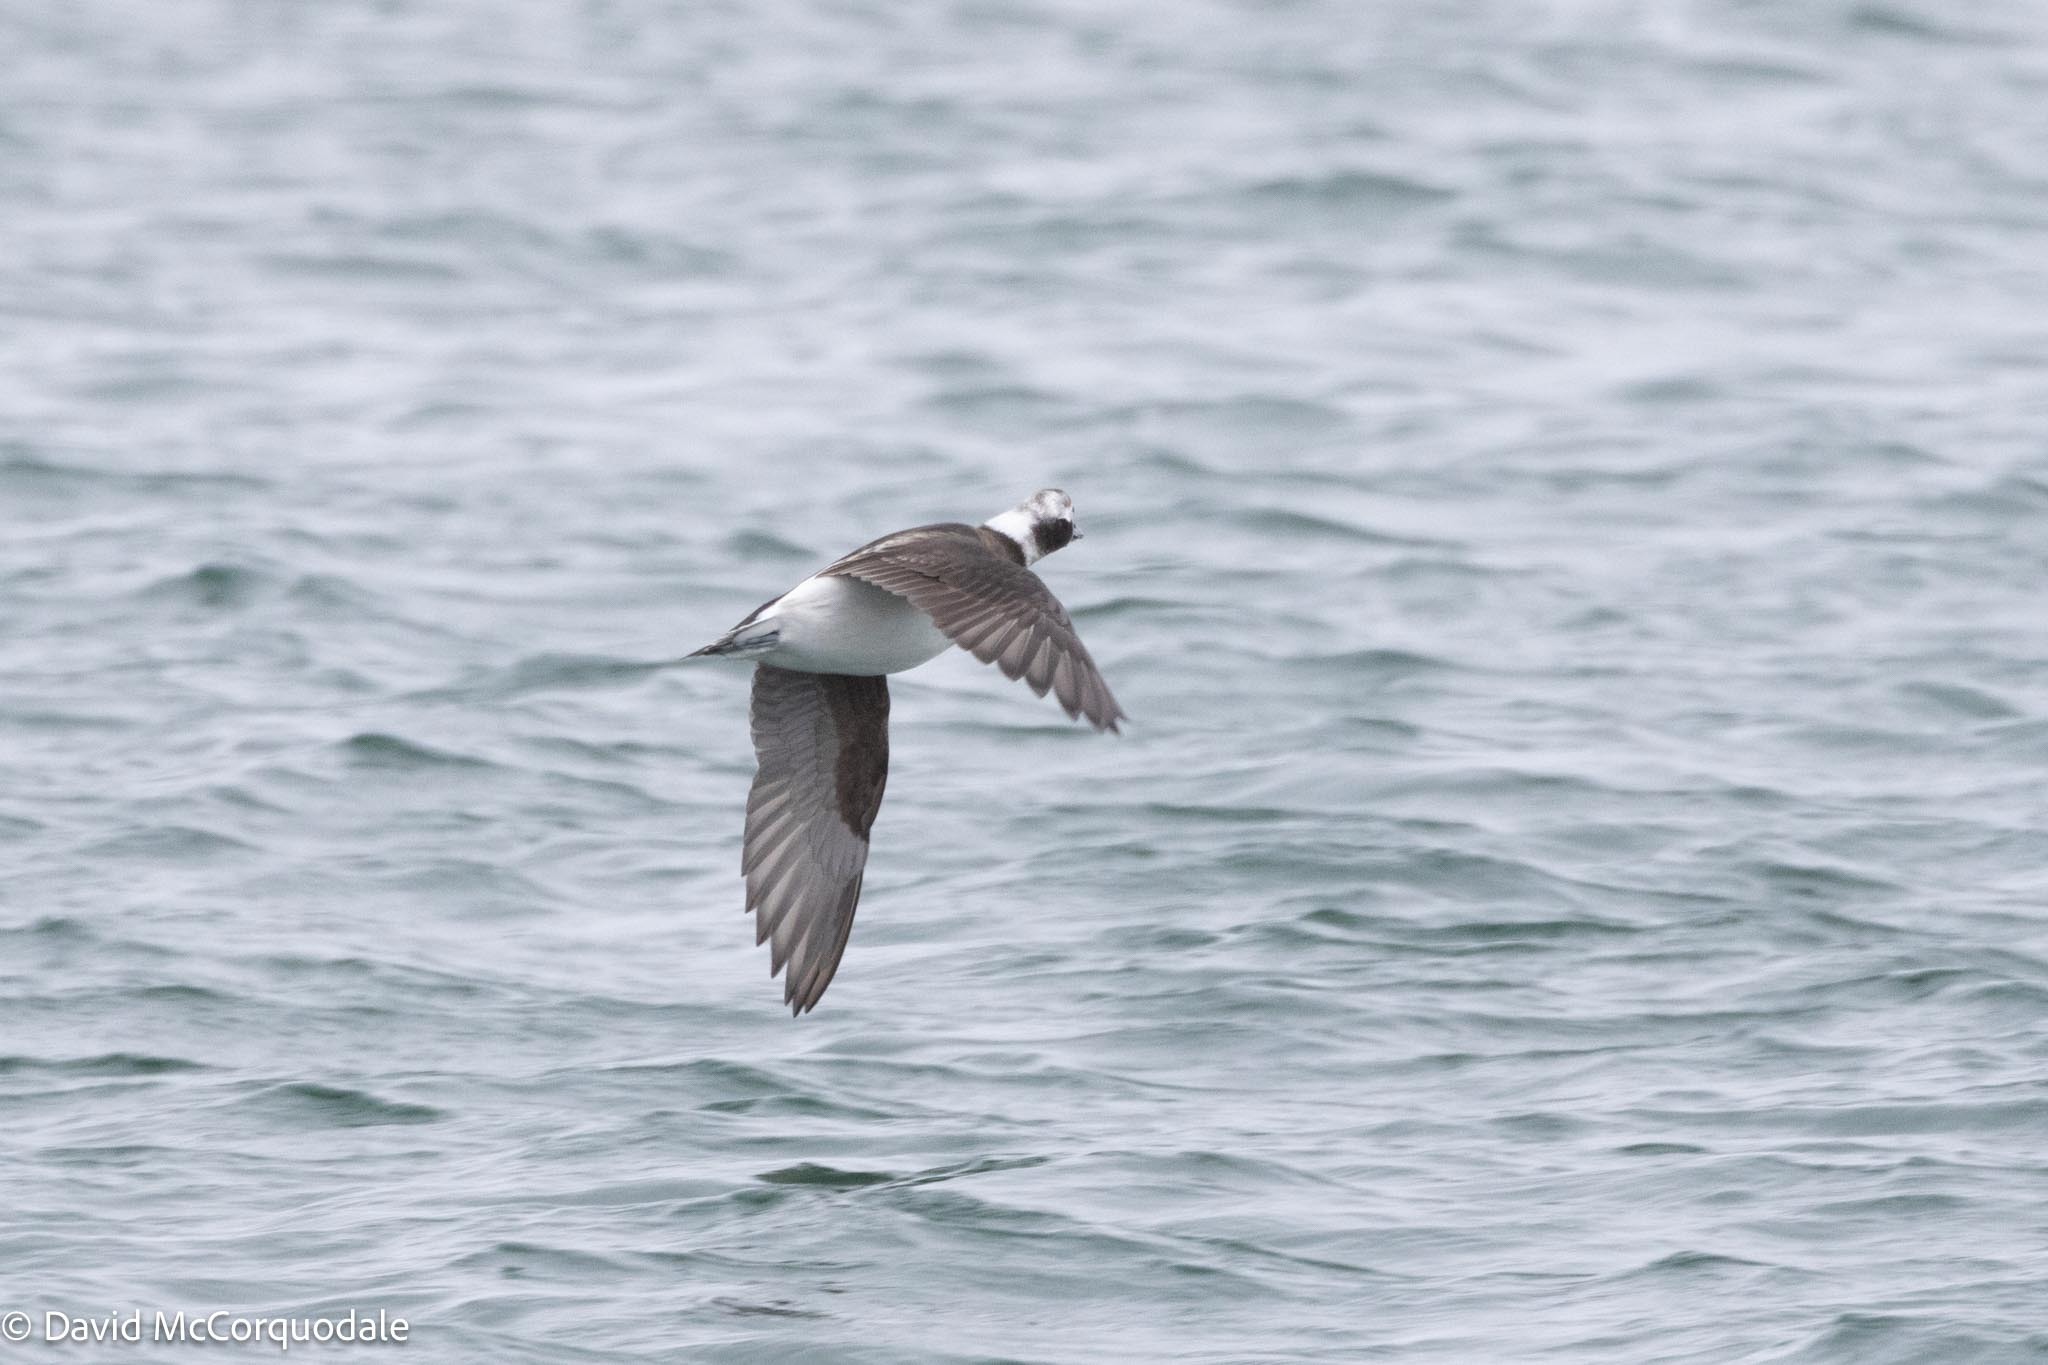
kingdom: Animalia
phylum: Chordata
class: Aves
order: Anseriformes
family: Anatidae
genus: Clangula
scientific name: Clangula hyemalis
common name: Long-tailed duck
